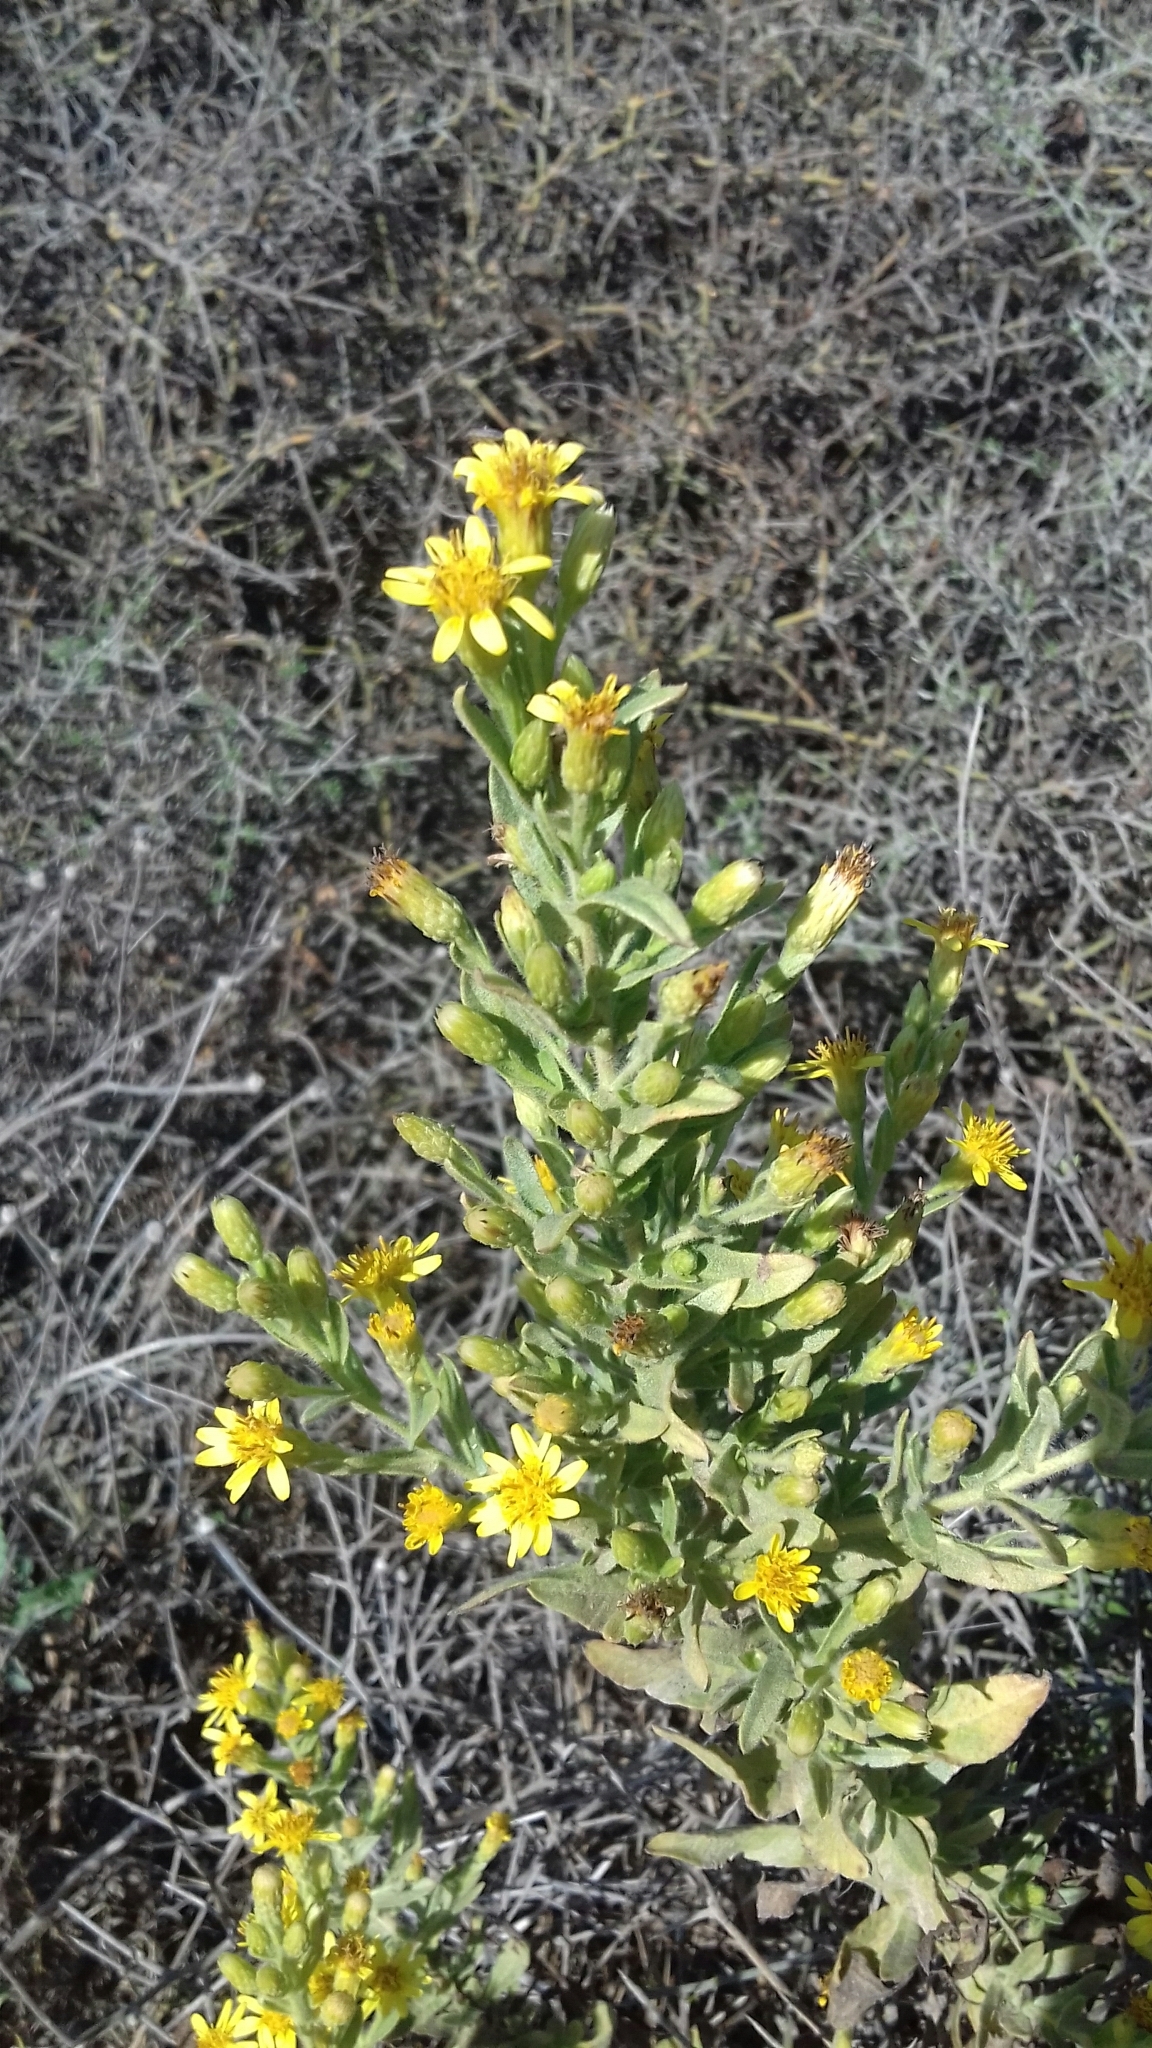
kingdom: Plantae
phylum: Tracheophyta
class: Magnoliopsida
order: Asterales
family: Asteraceae
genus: Dittrichia
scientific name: Dittrichia viscosa
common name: Woody fleabane
